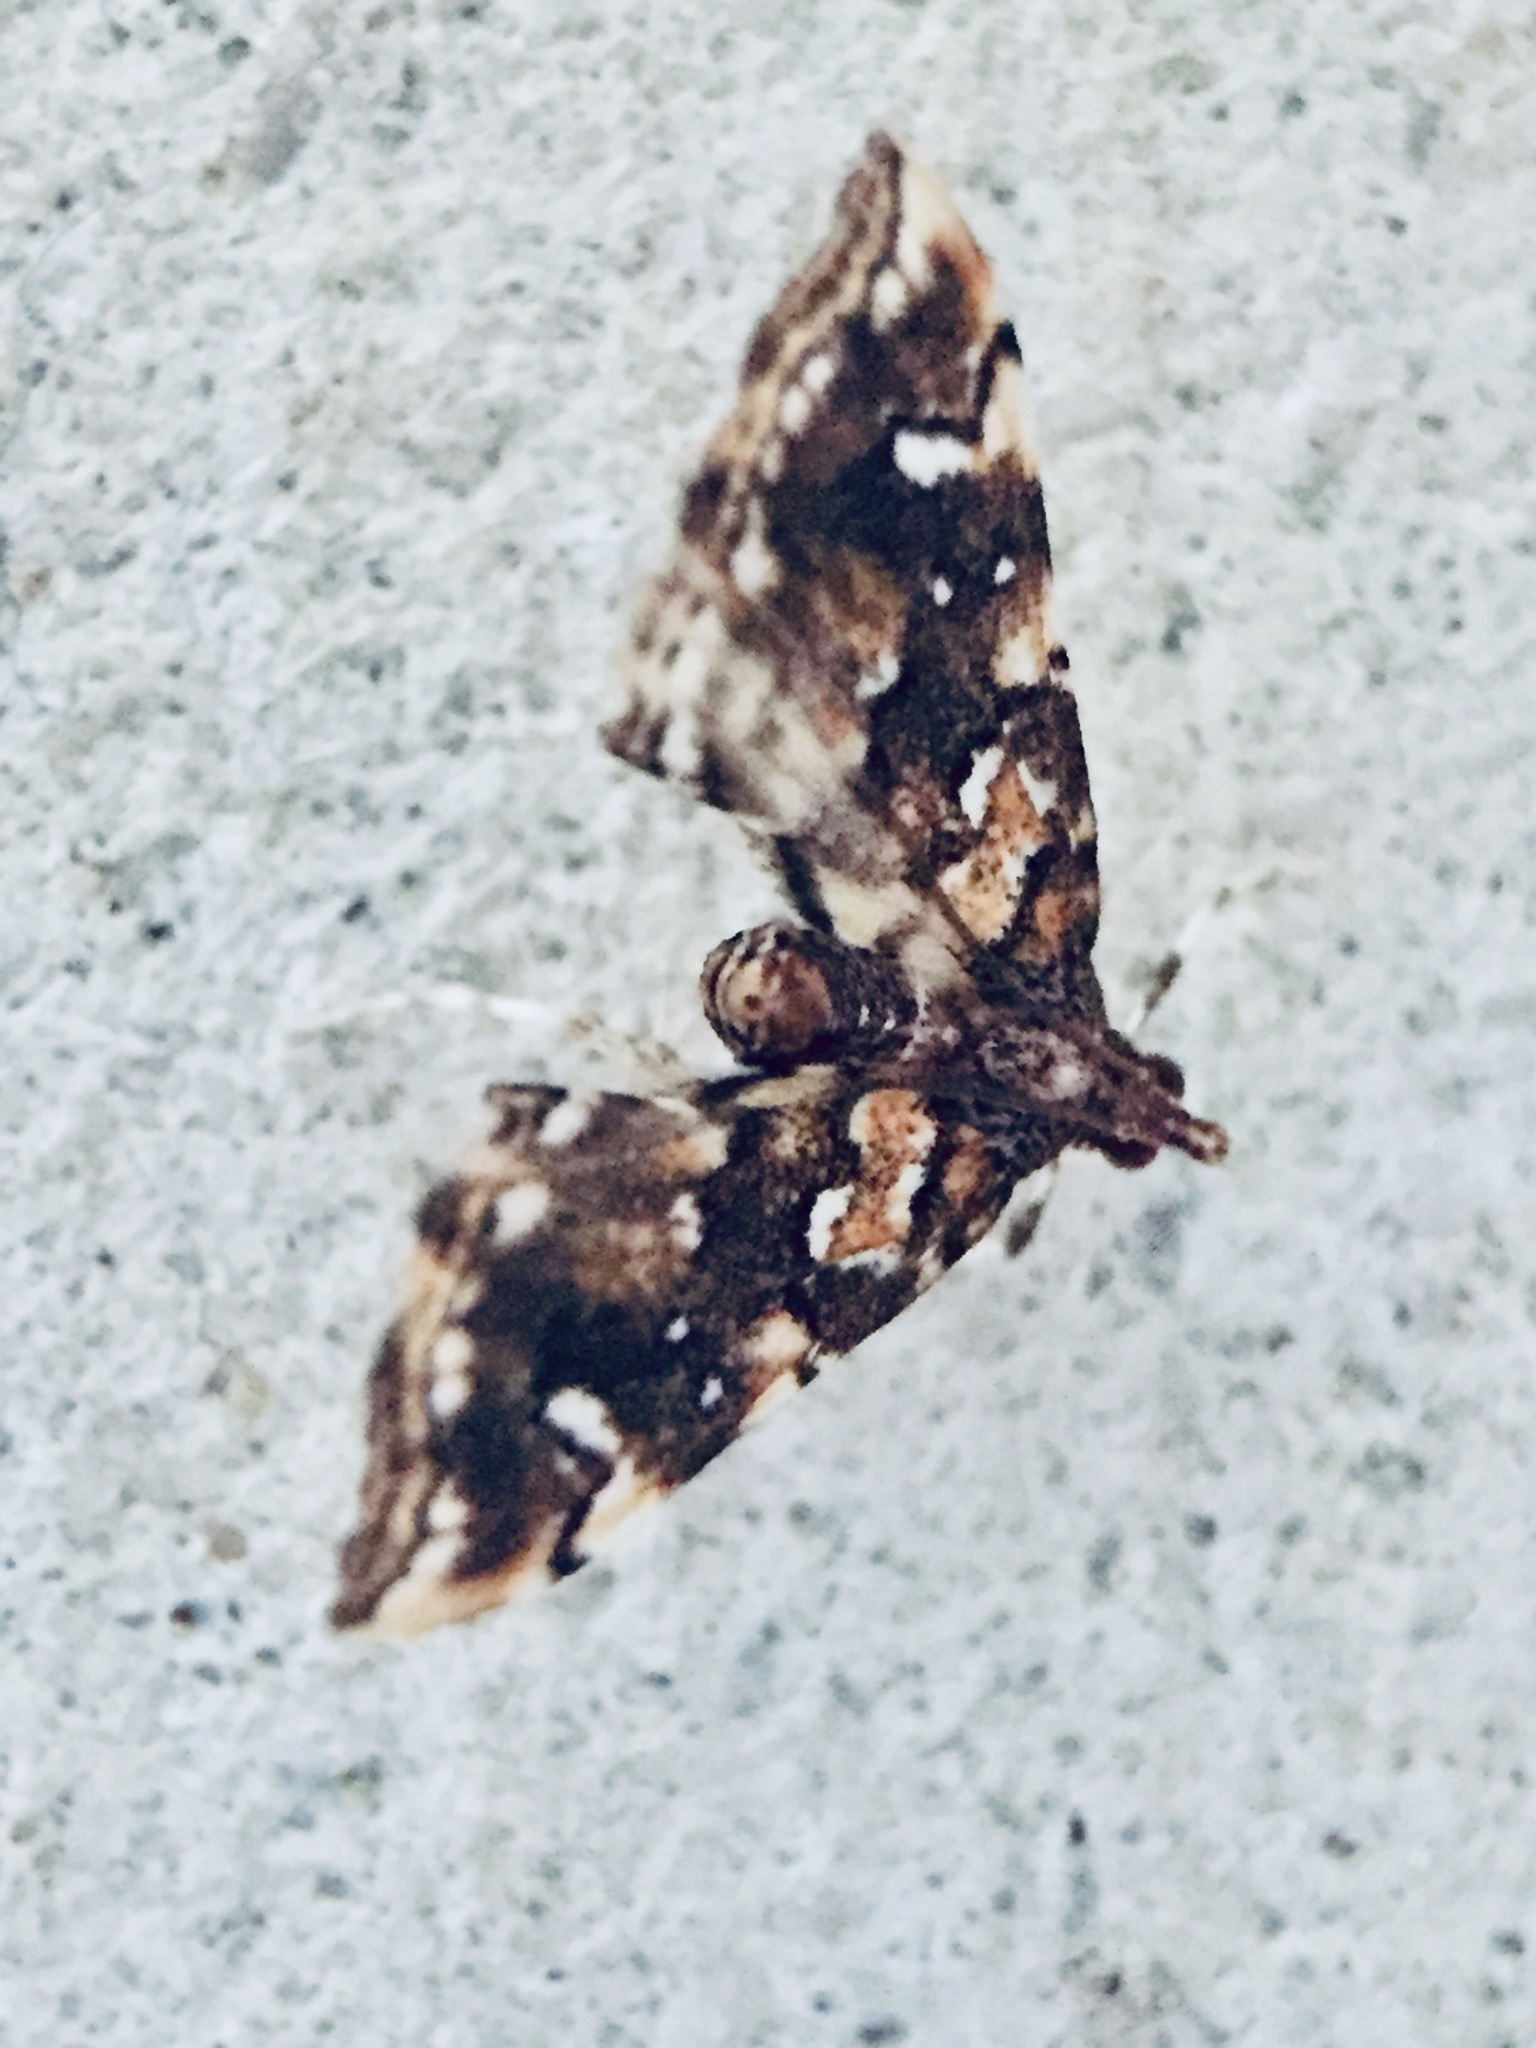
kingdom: Animalia
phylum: Arthropoda
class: Insecta
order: Lepidoptera
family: Pyralidae
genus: Musotima
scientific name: Musotima nitidalis
